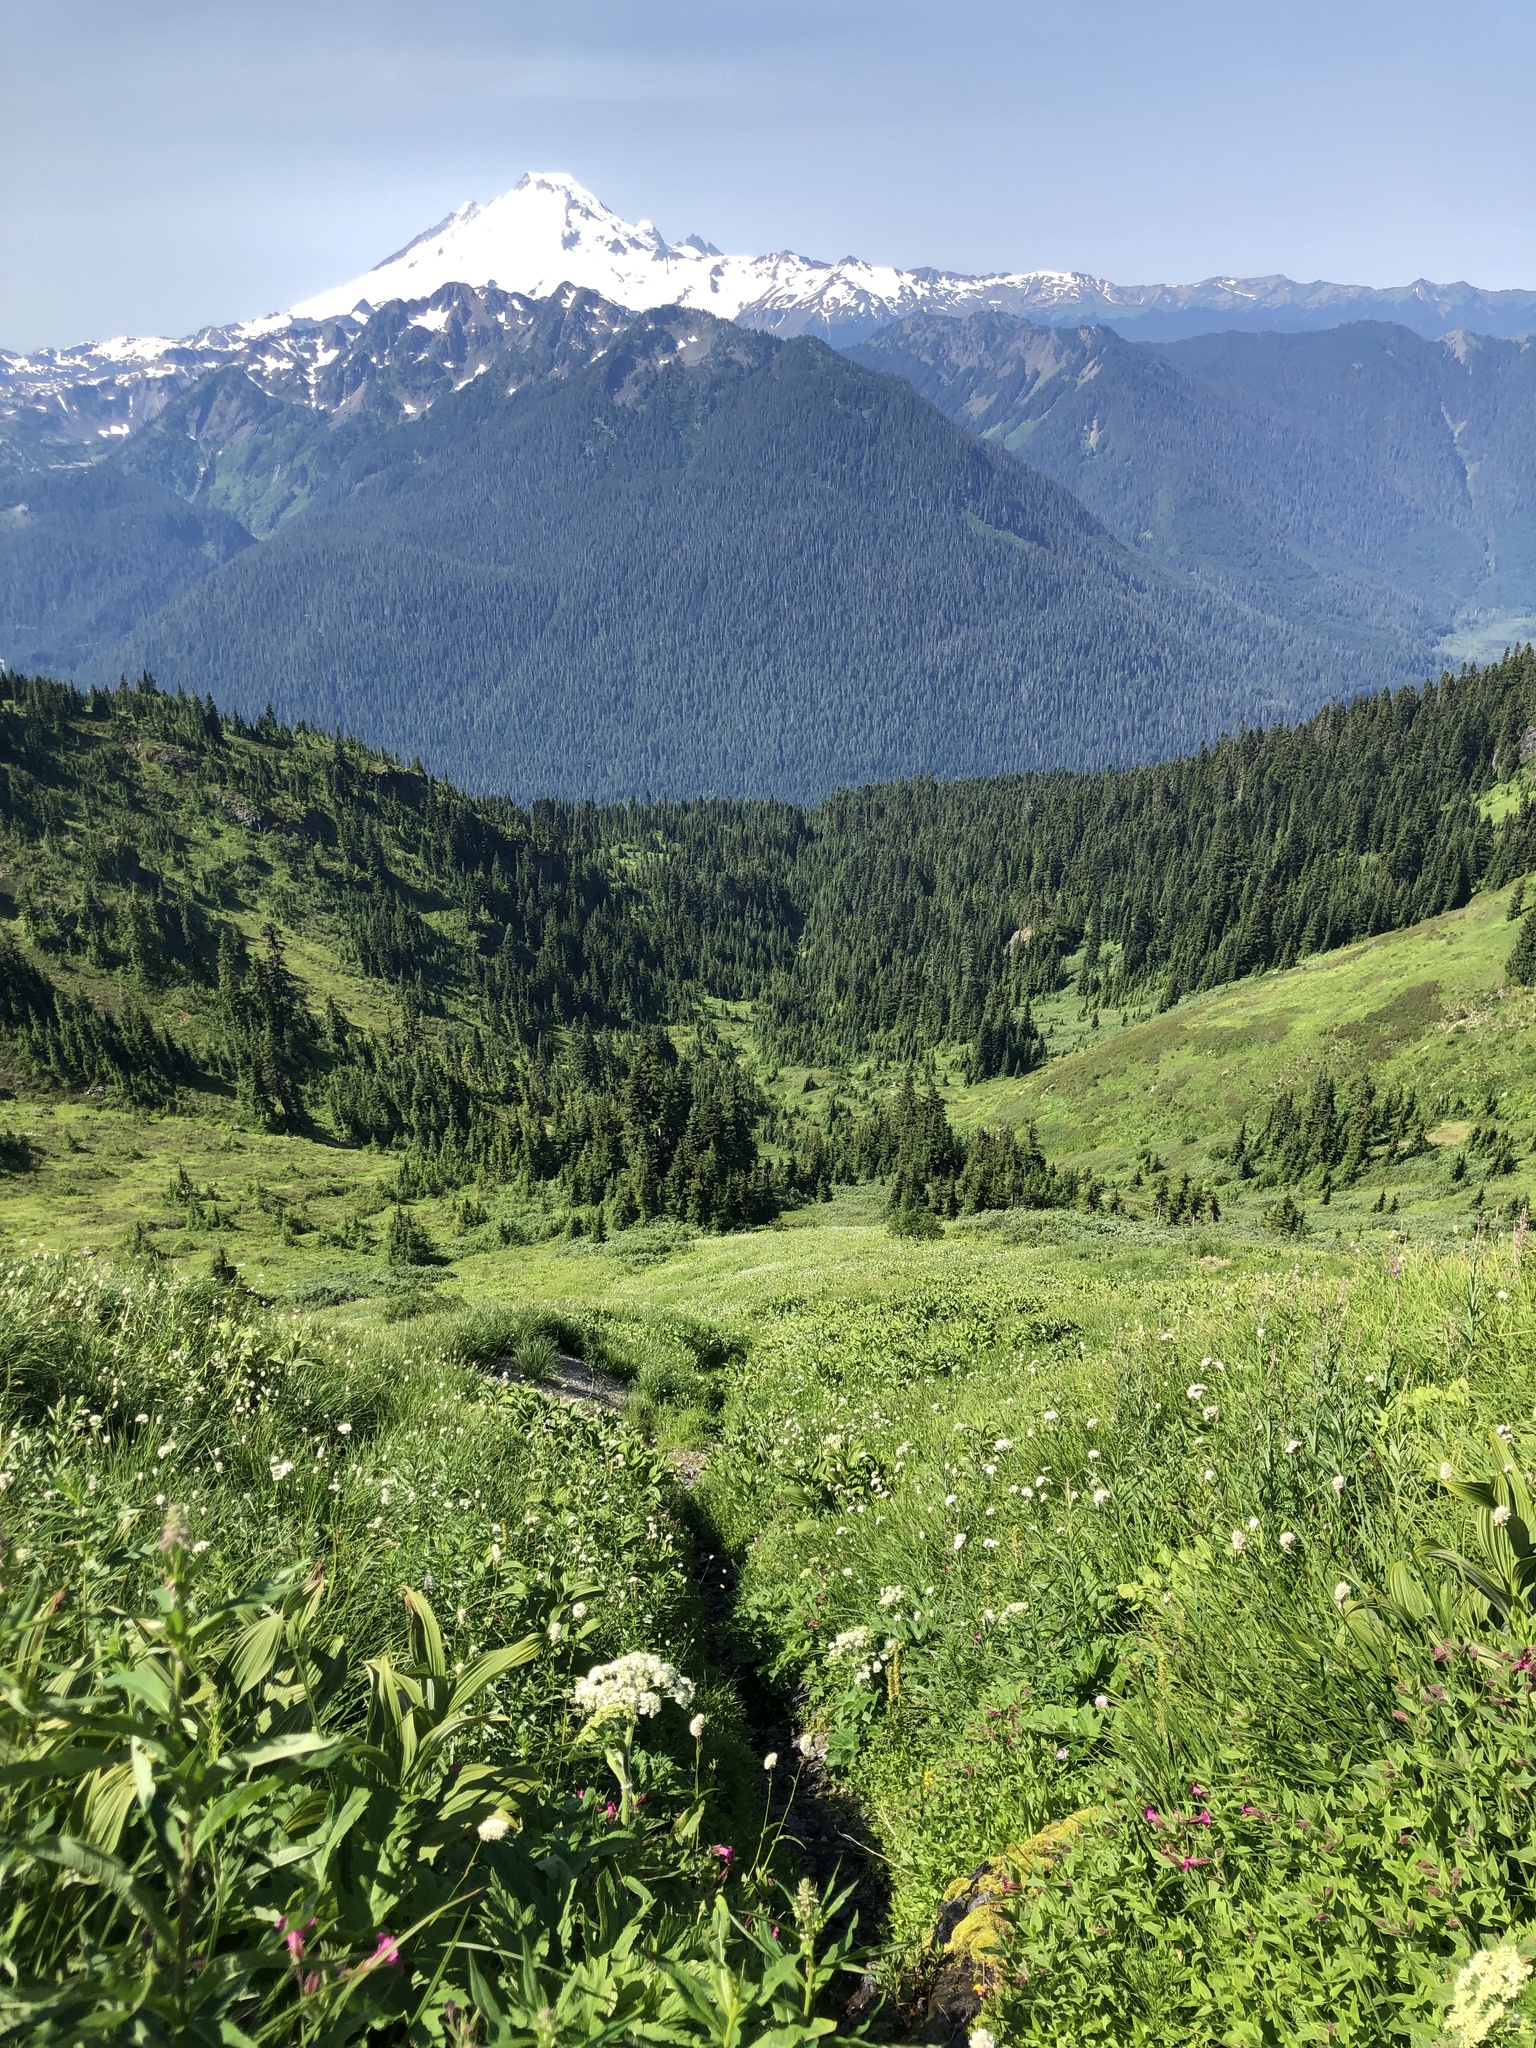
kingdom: Plantae
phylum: Tracheophyta
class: Magnoliopsida
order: Rosales
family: Rosaceae
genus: Spiraea
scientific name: Spiraea splendens
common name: Subalpine meadowsweet
